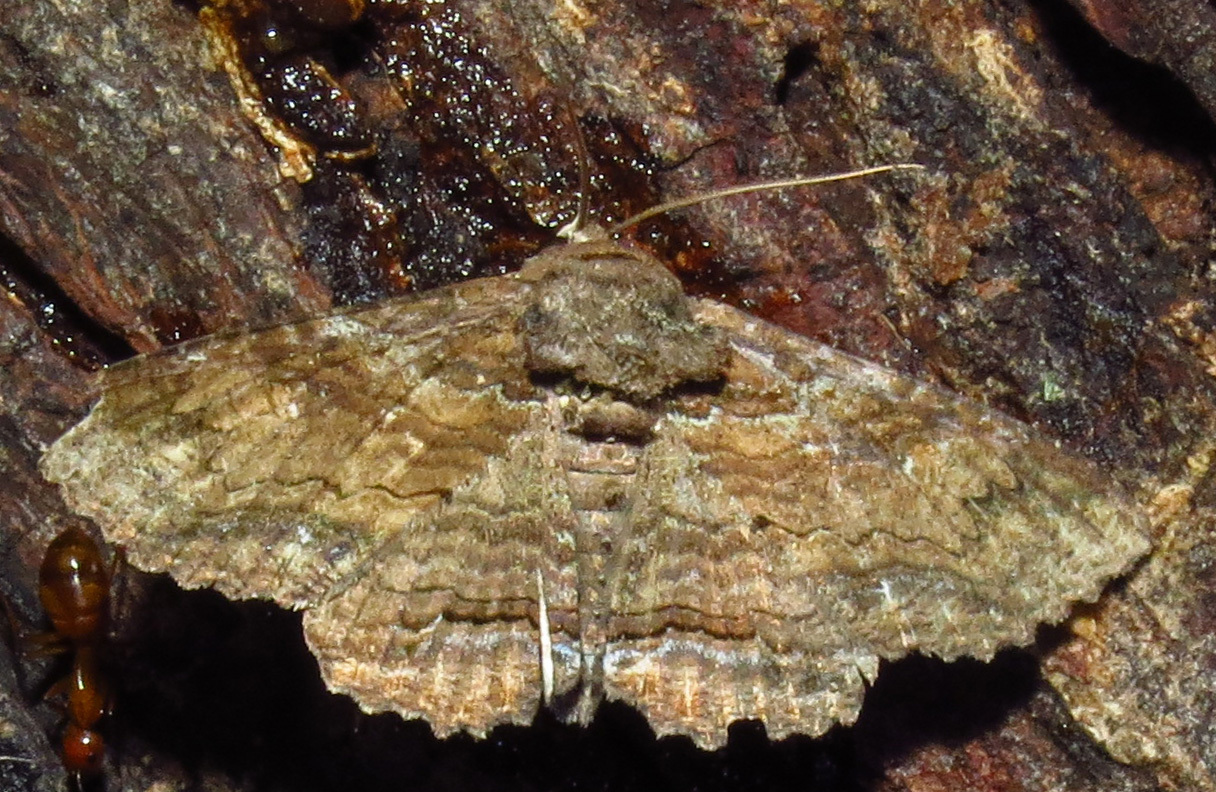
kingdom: Animalia
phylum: Arthropoda
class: Insecta
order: Lepidoptera
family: Erebidae
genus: Zale
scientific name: Zale lunata
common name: Lunate zale moth
